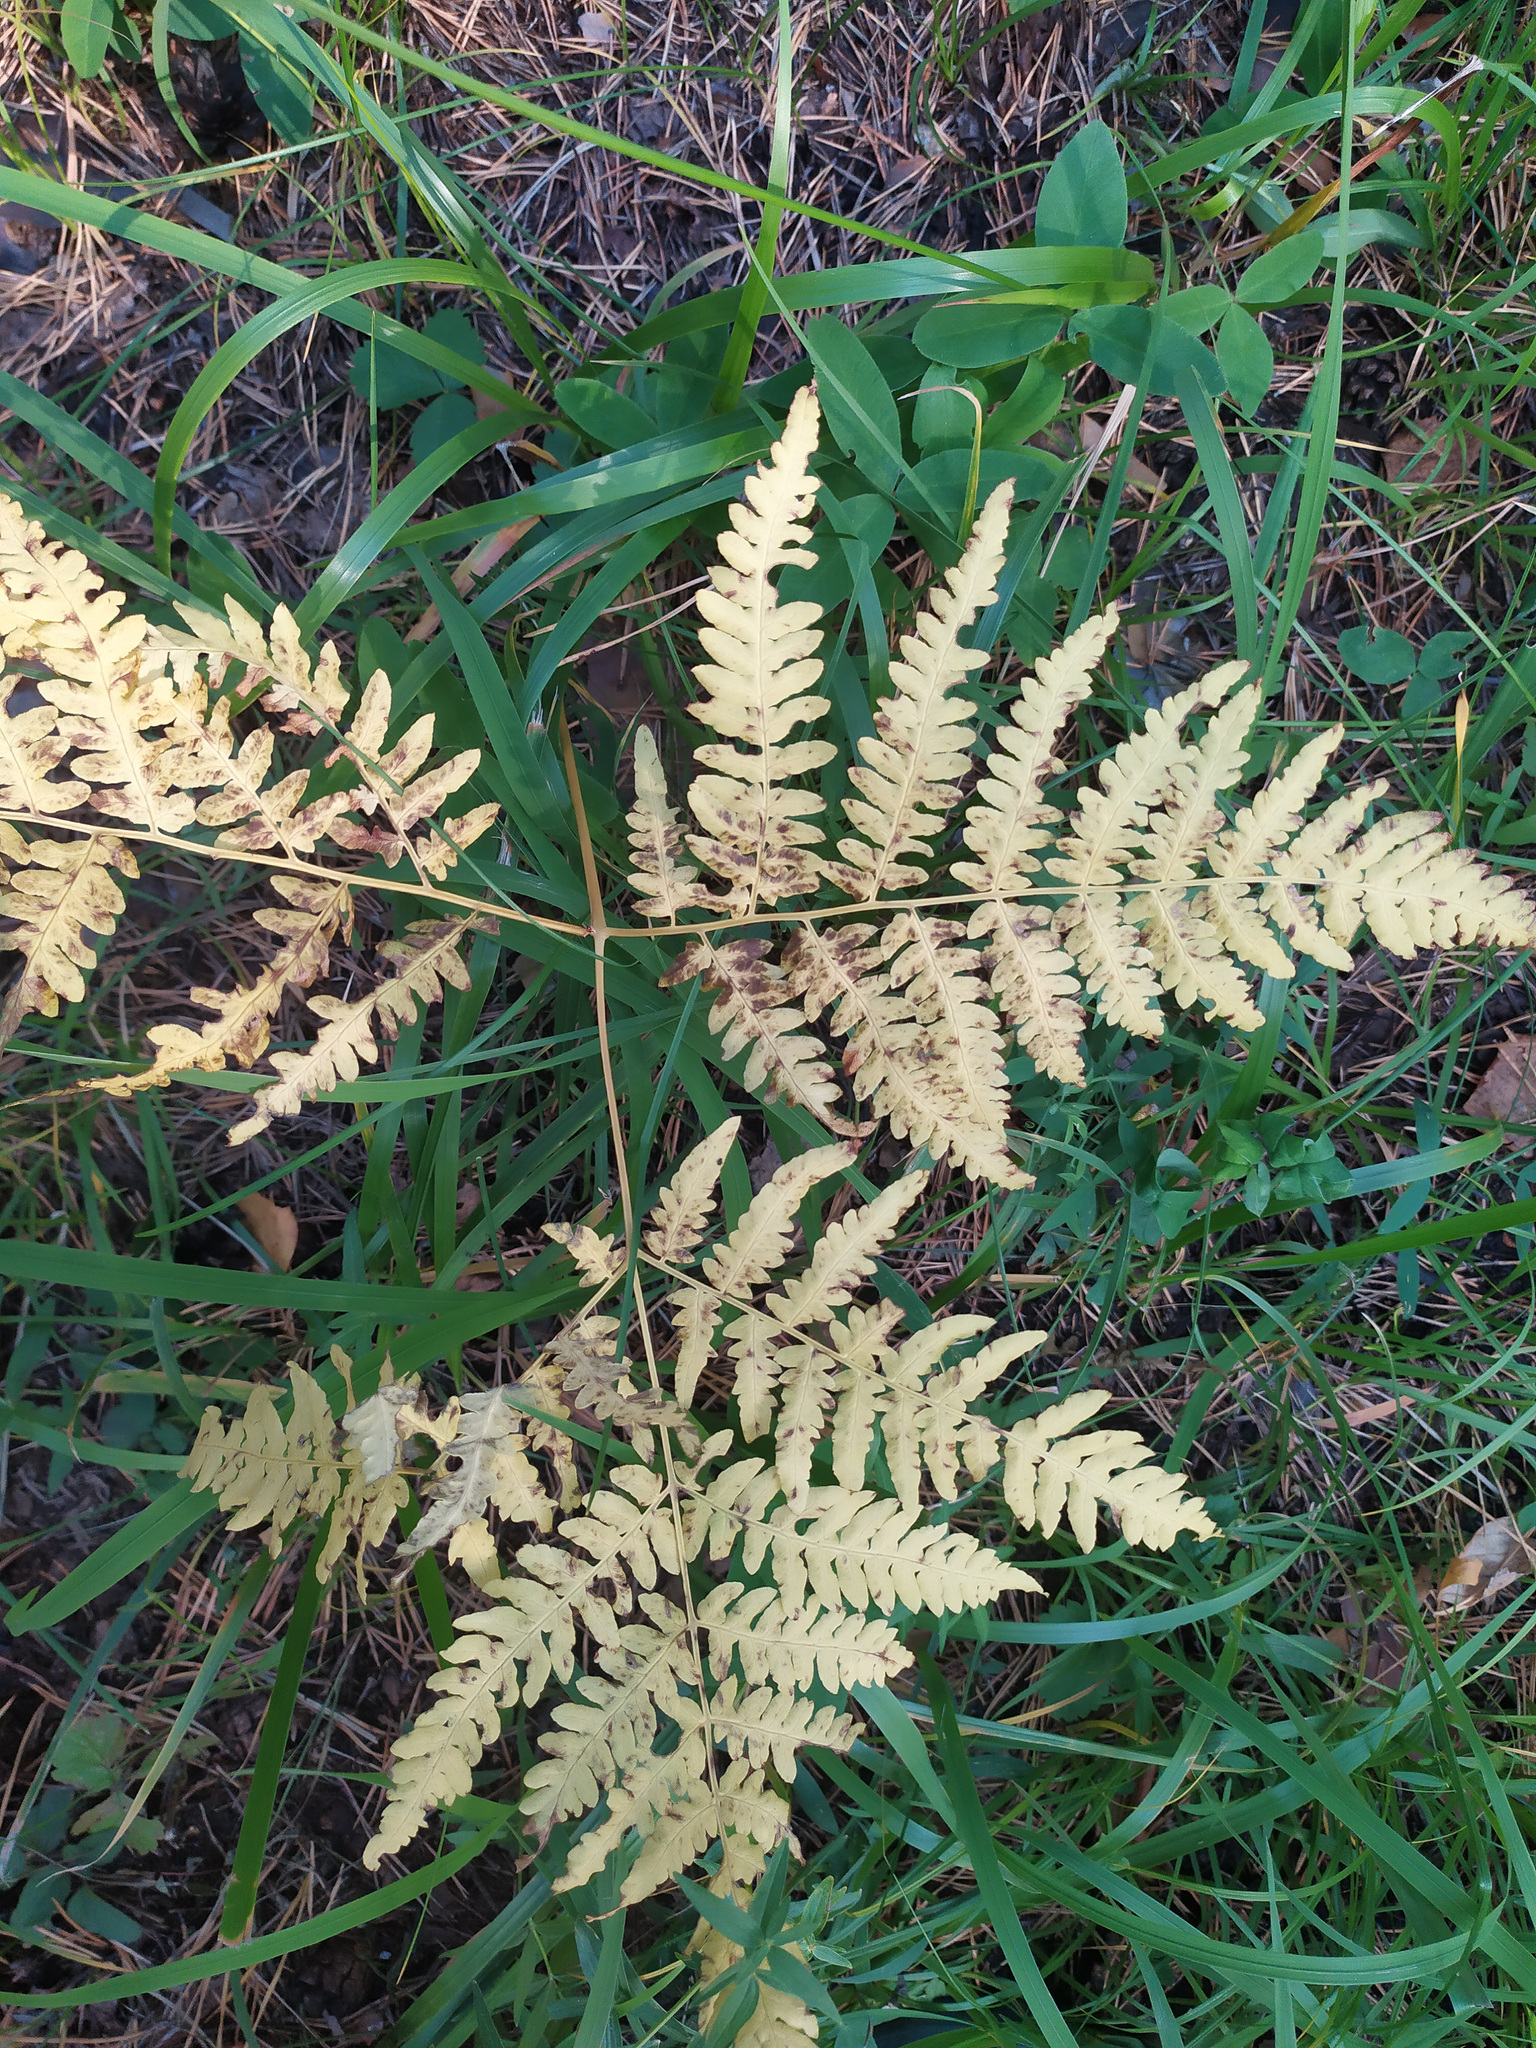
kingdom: Plantae
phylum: Tracheophyta
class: Polypodiopsida
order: Polypodiales
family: Dennstaedtiaceae
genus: Pteridium
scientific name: Pteridium aquilinum
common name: Bracken
